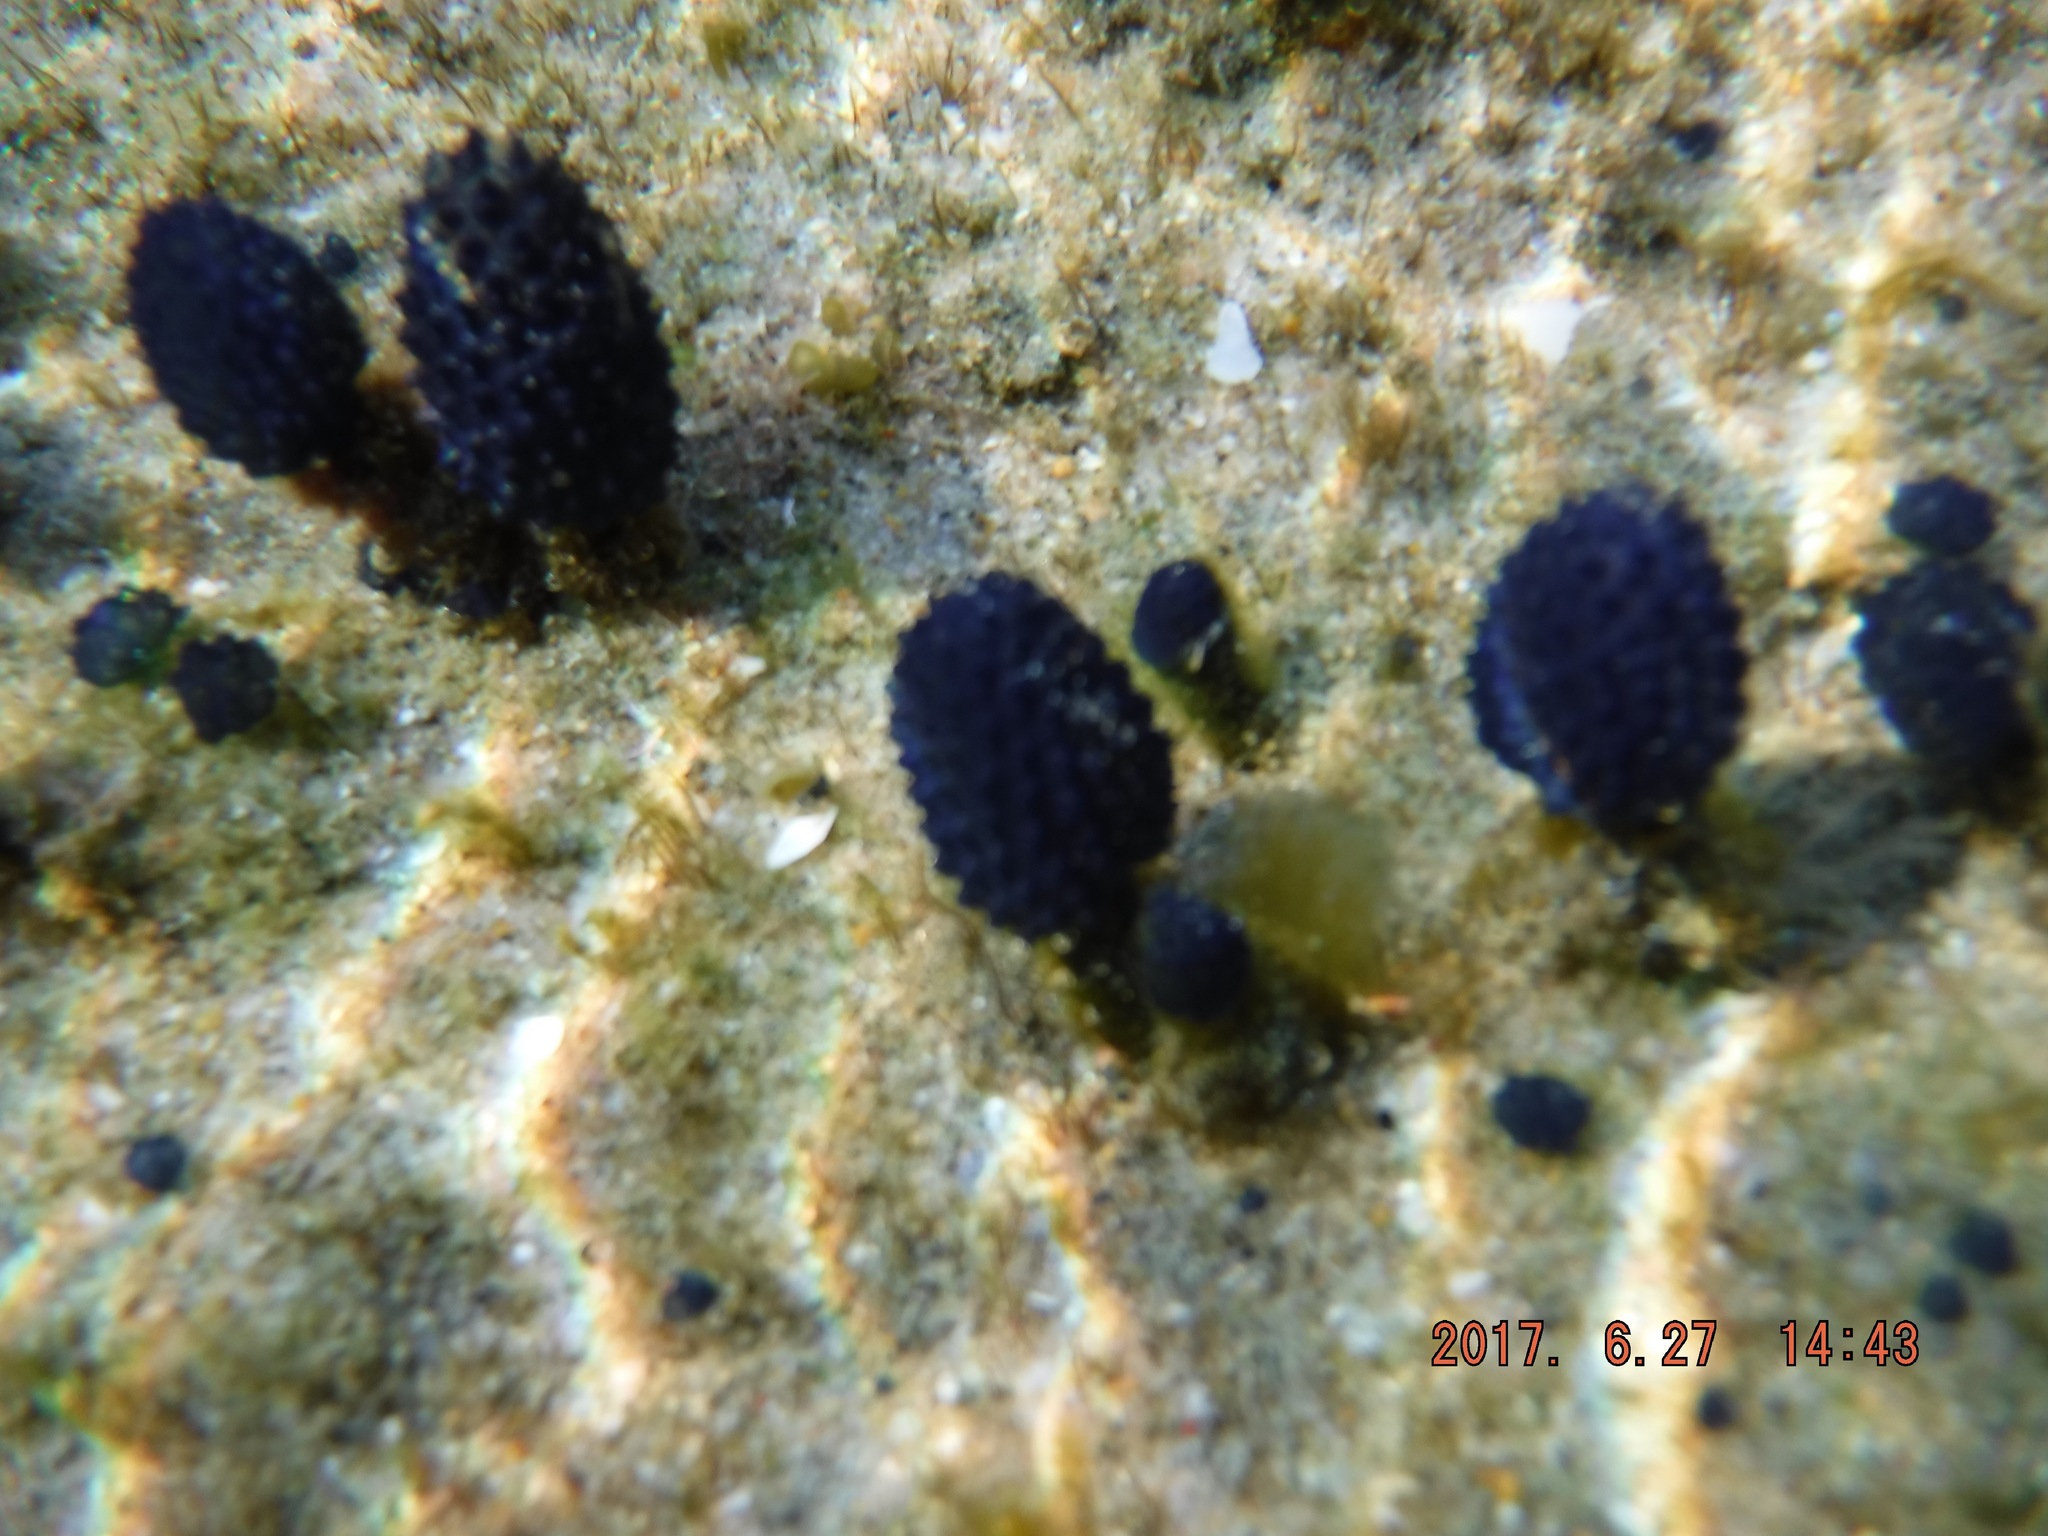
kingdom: Animalia
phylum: Chordata
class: Ascidiacea
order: Aplousobranchia
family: Polycitoridae
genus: Eudistoma
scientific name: Eudistoma caeruleum
